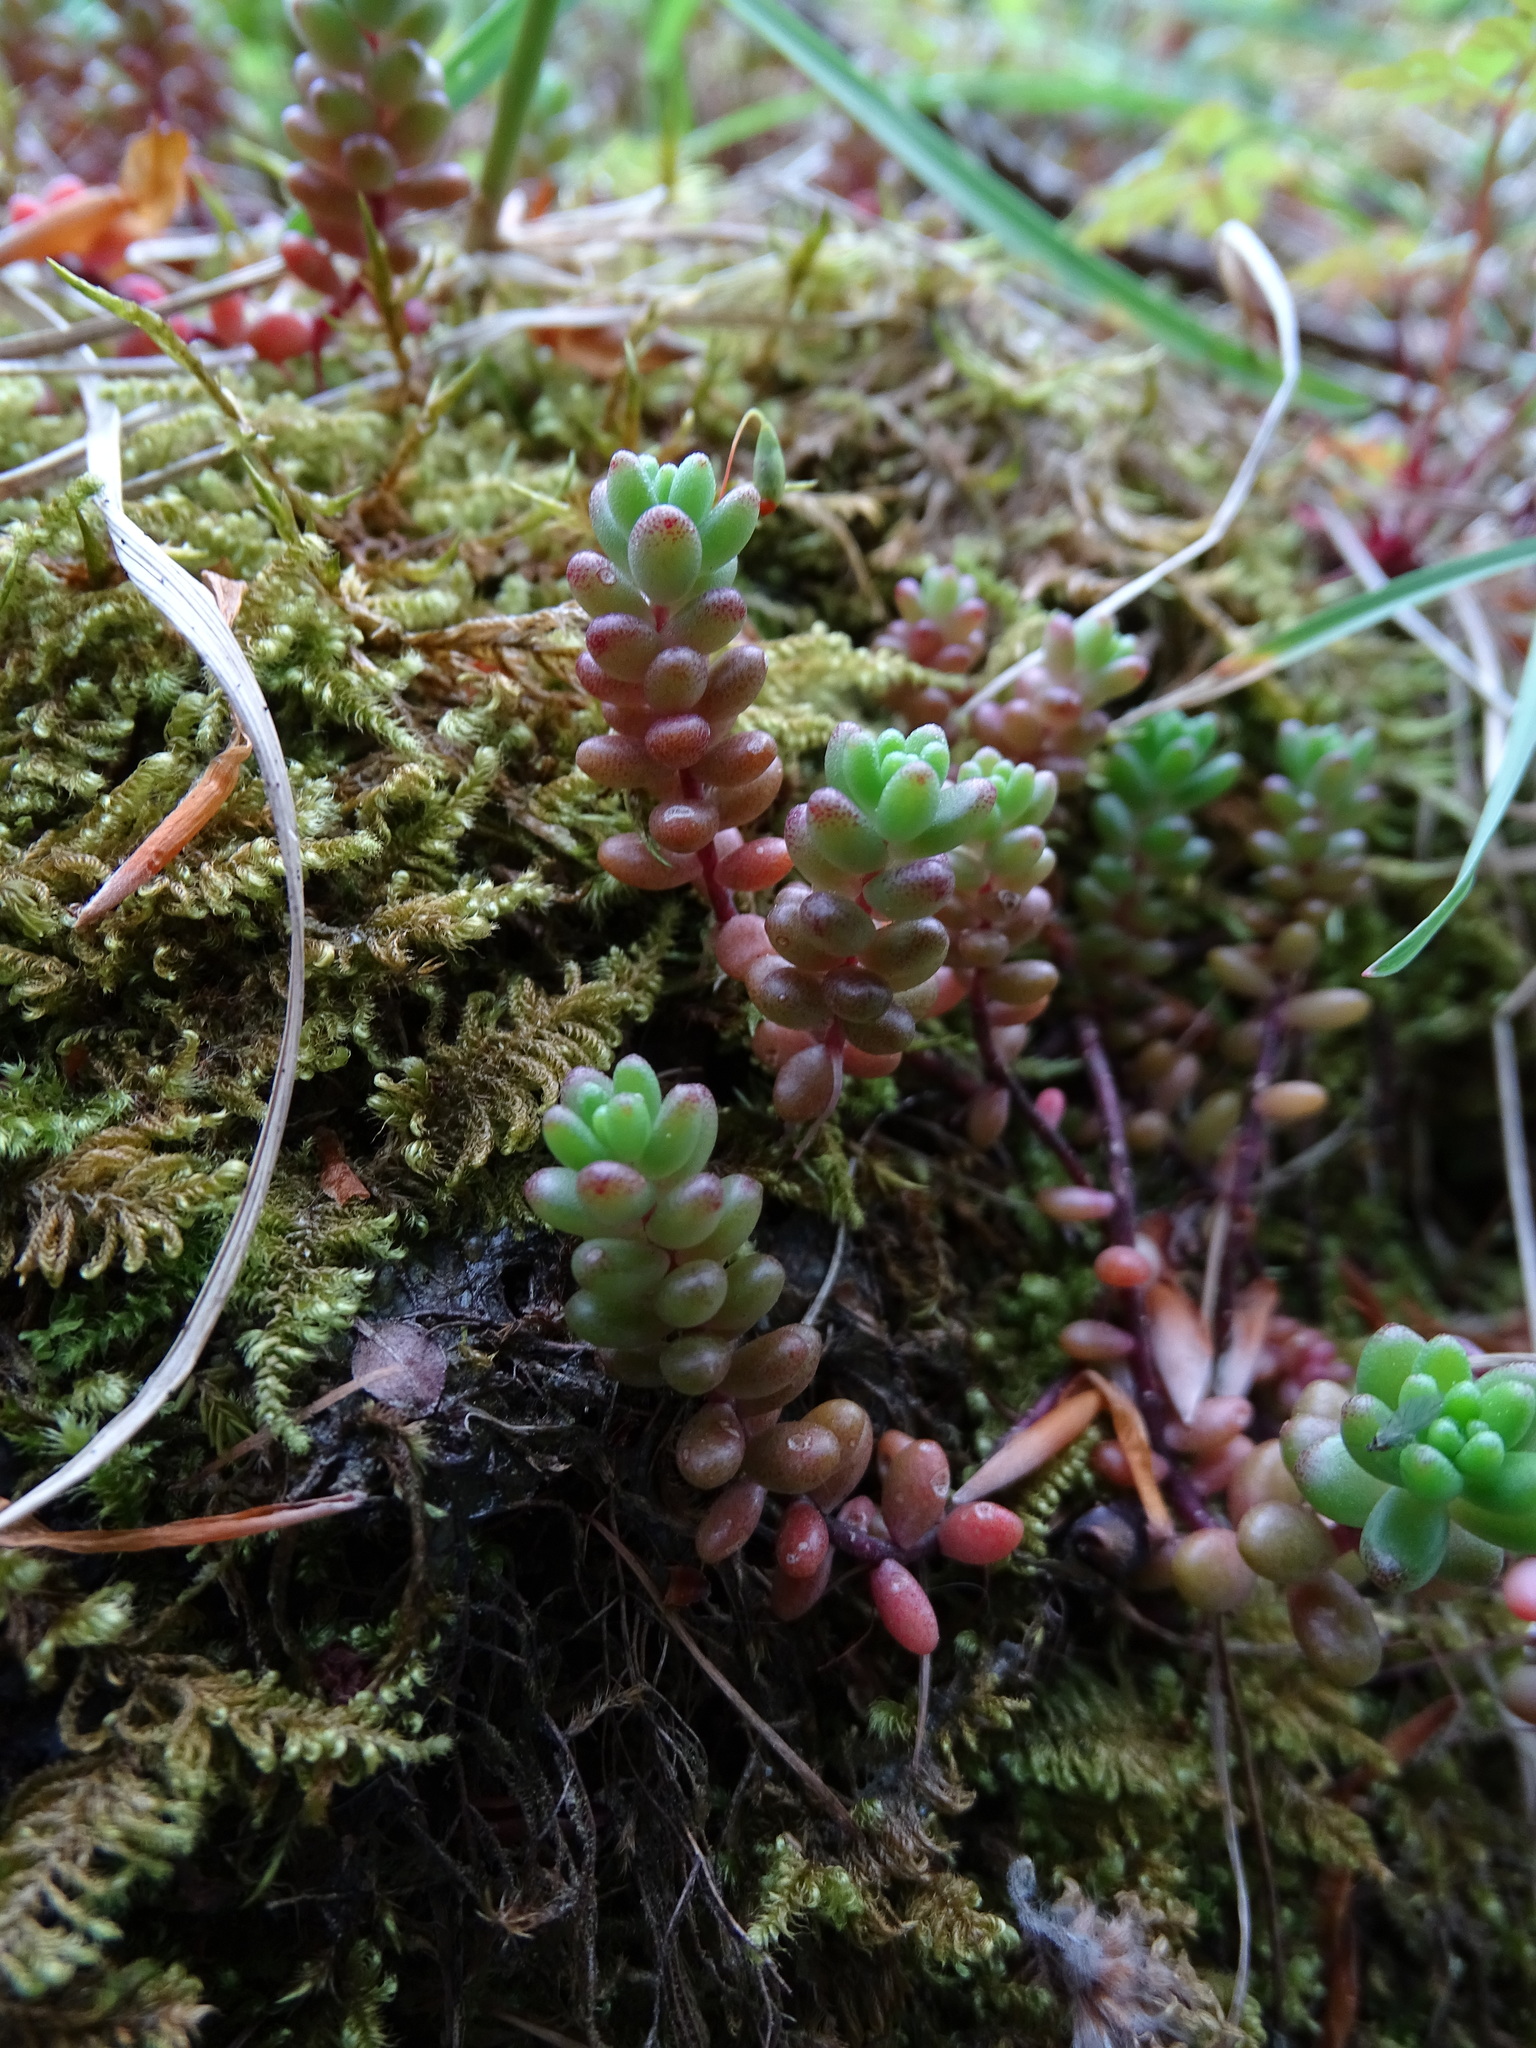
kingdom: Plantae
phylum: Tracheophyta
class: Magnoliopsida
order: Saxifragales
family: Crassulaceae
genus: Sedum
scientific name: Sedum album
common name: White stonecrop
